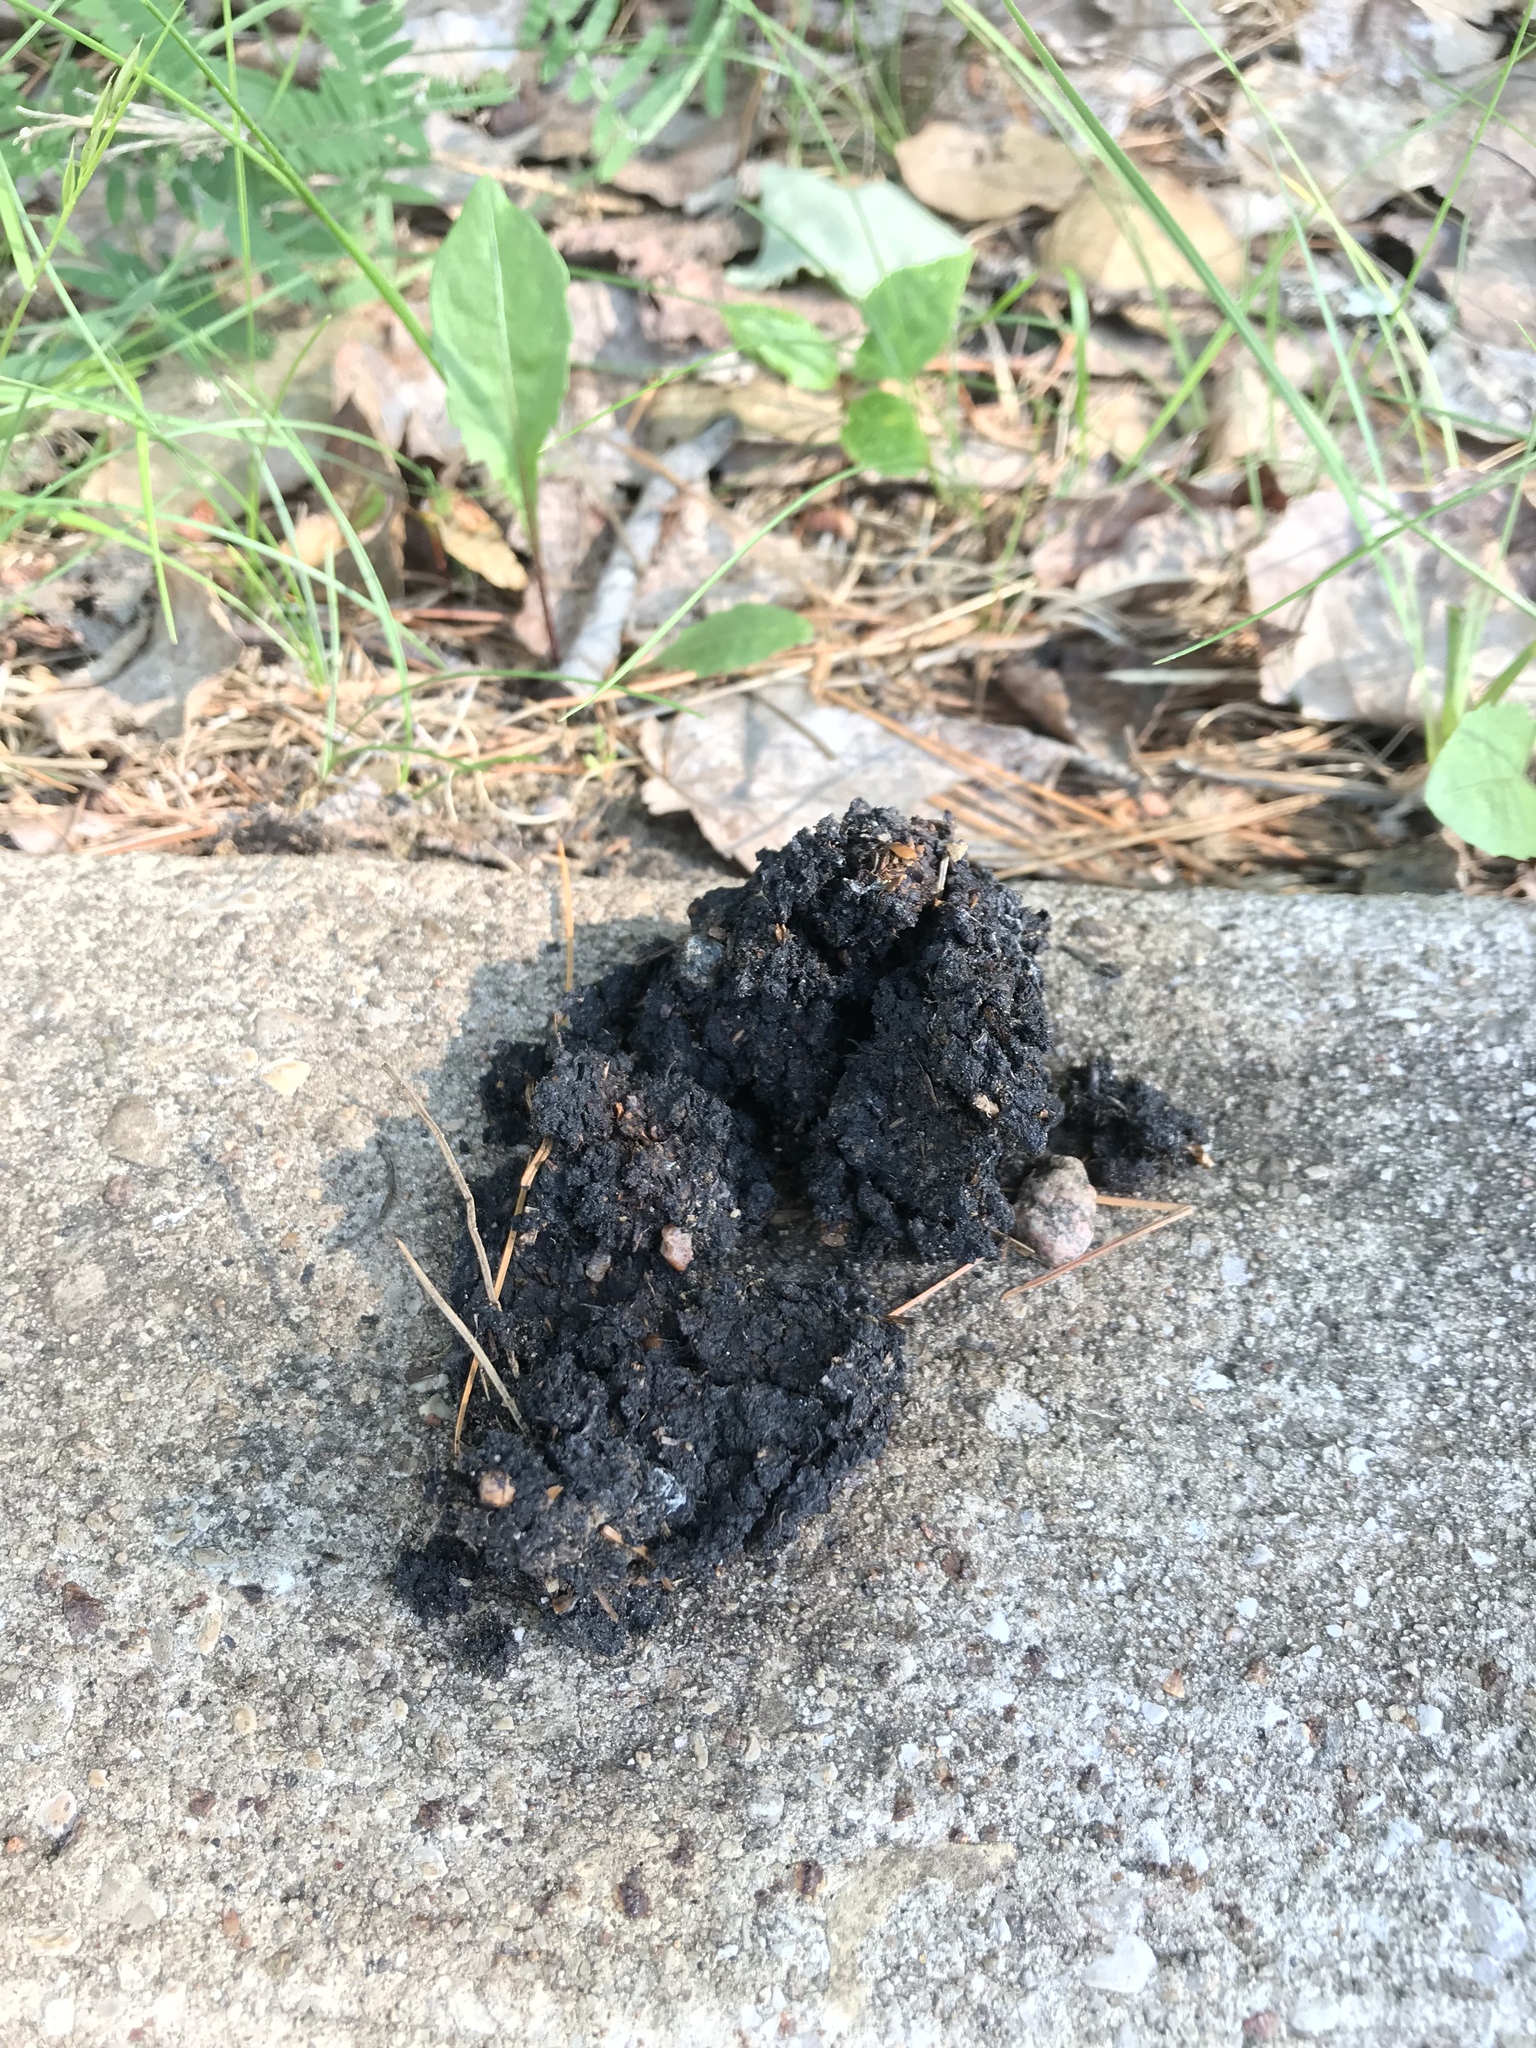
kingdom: Animalia
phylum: Chordata
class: Mammalia
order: Carnivora
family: Ursidae
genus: Ursus
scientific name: Ursus americanus
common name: American black bear
